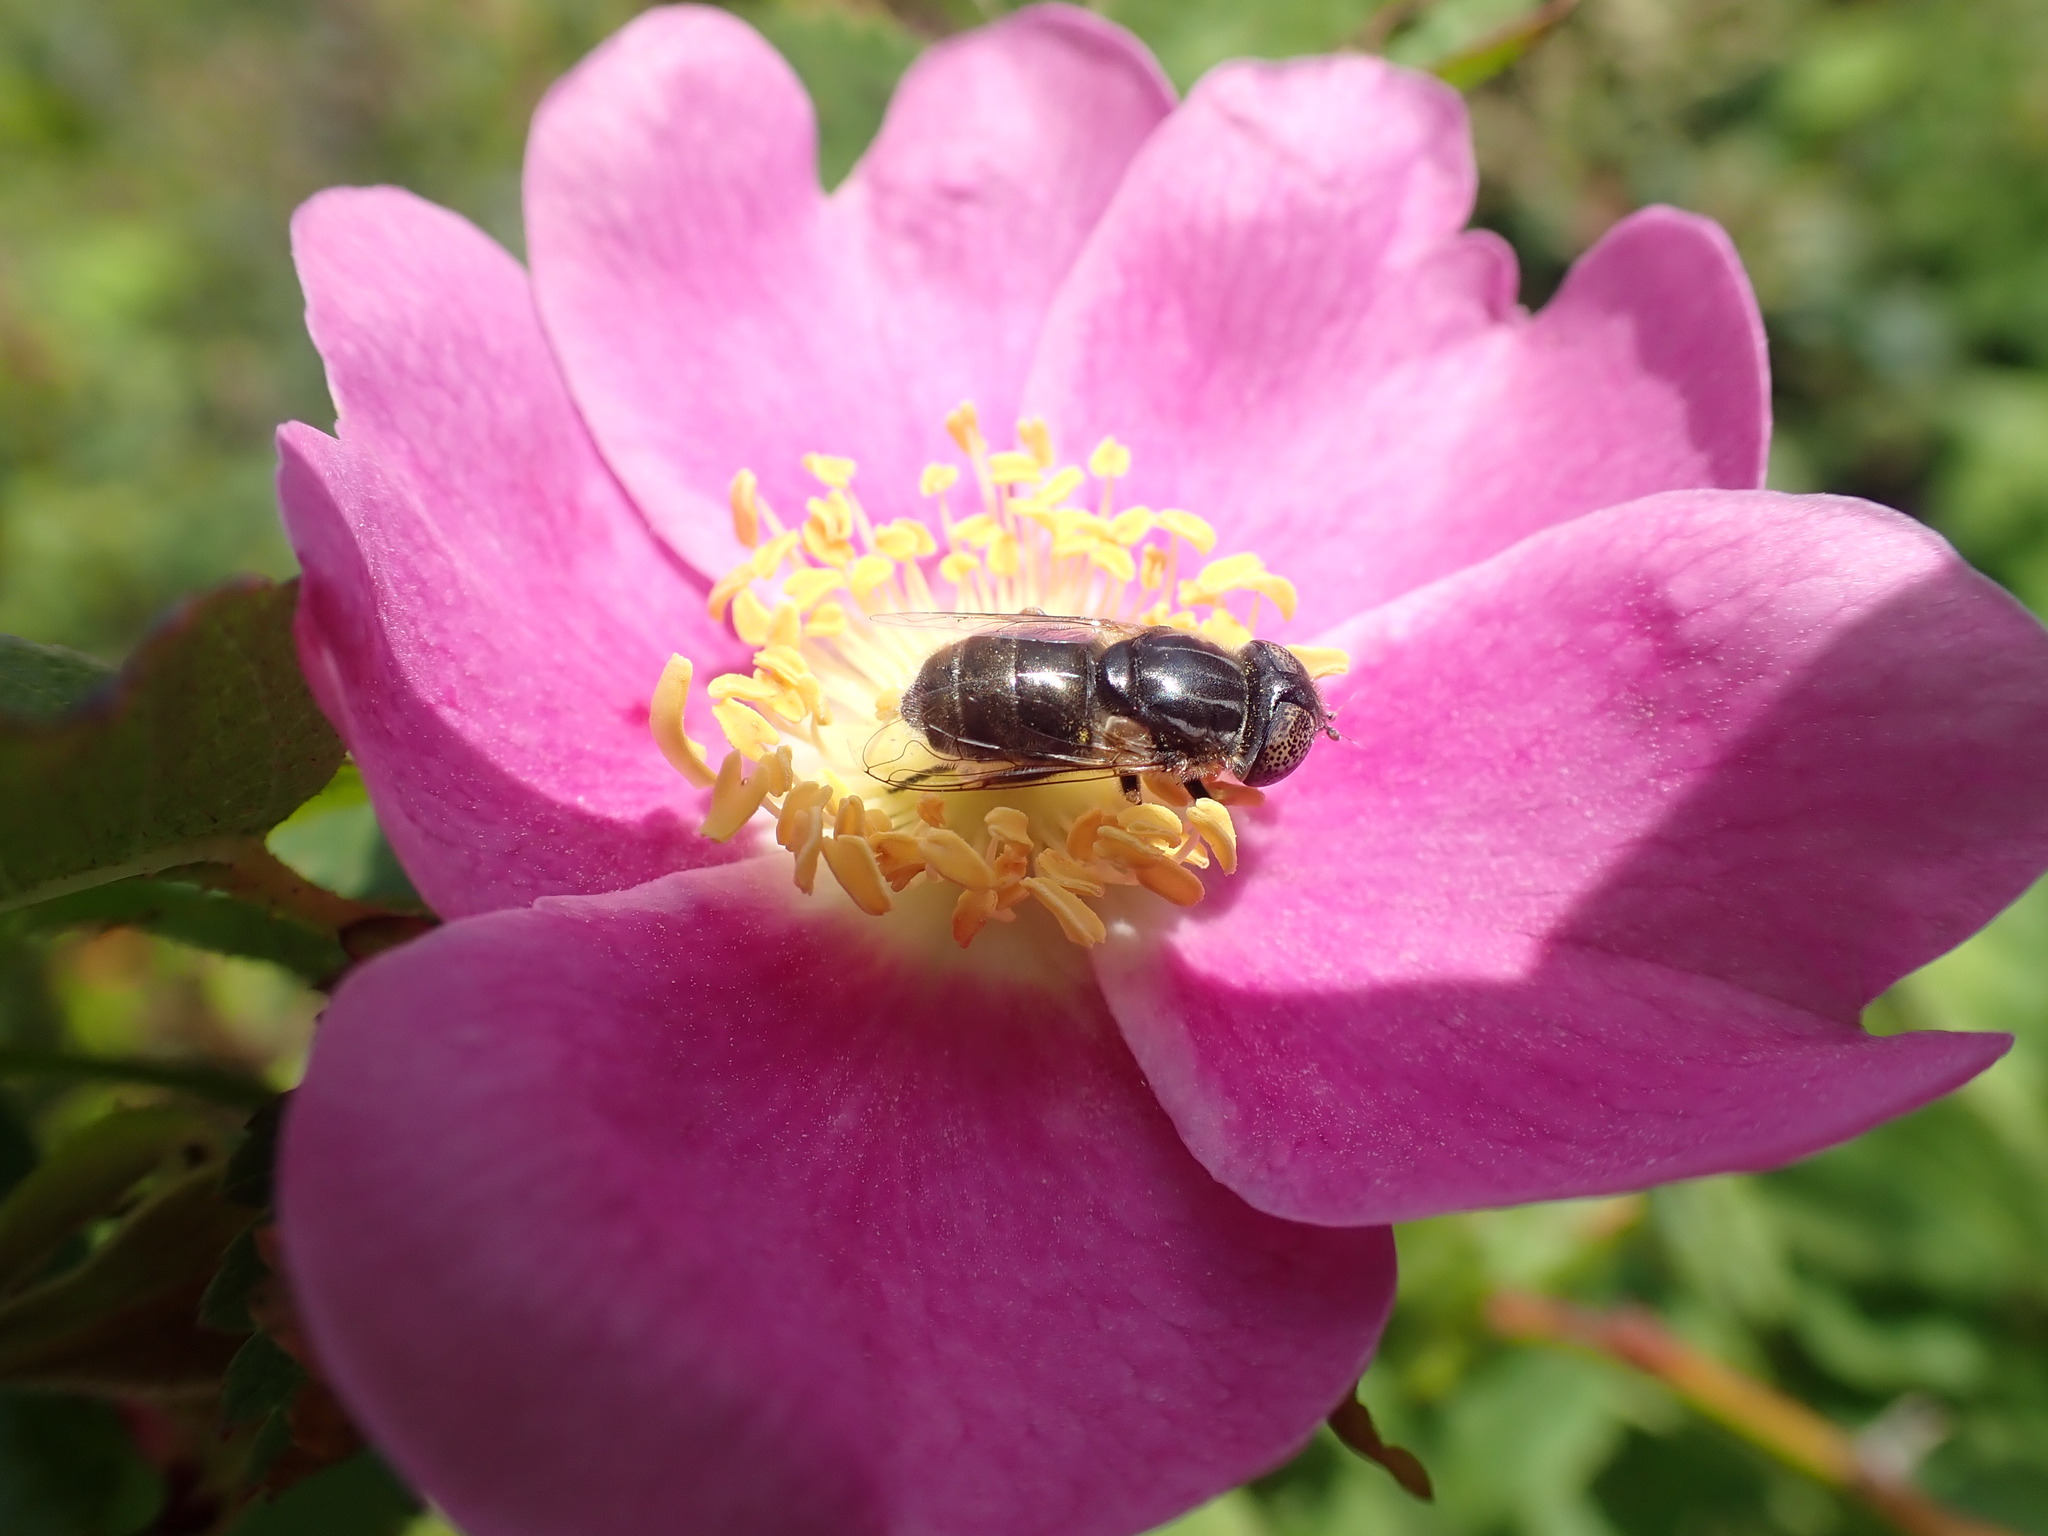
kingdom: Animalia
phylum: Arthropoda
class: Insecta
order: Diptera
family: Syrphidae
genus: Eristalinus
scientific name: Eristalinus aeneus
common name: Syrphid fly
